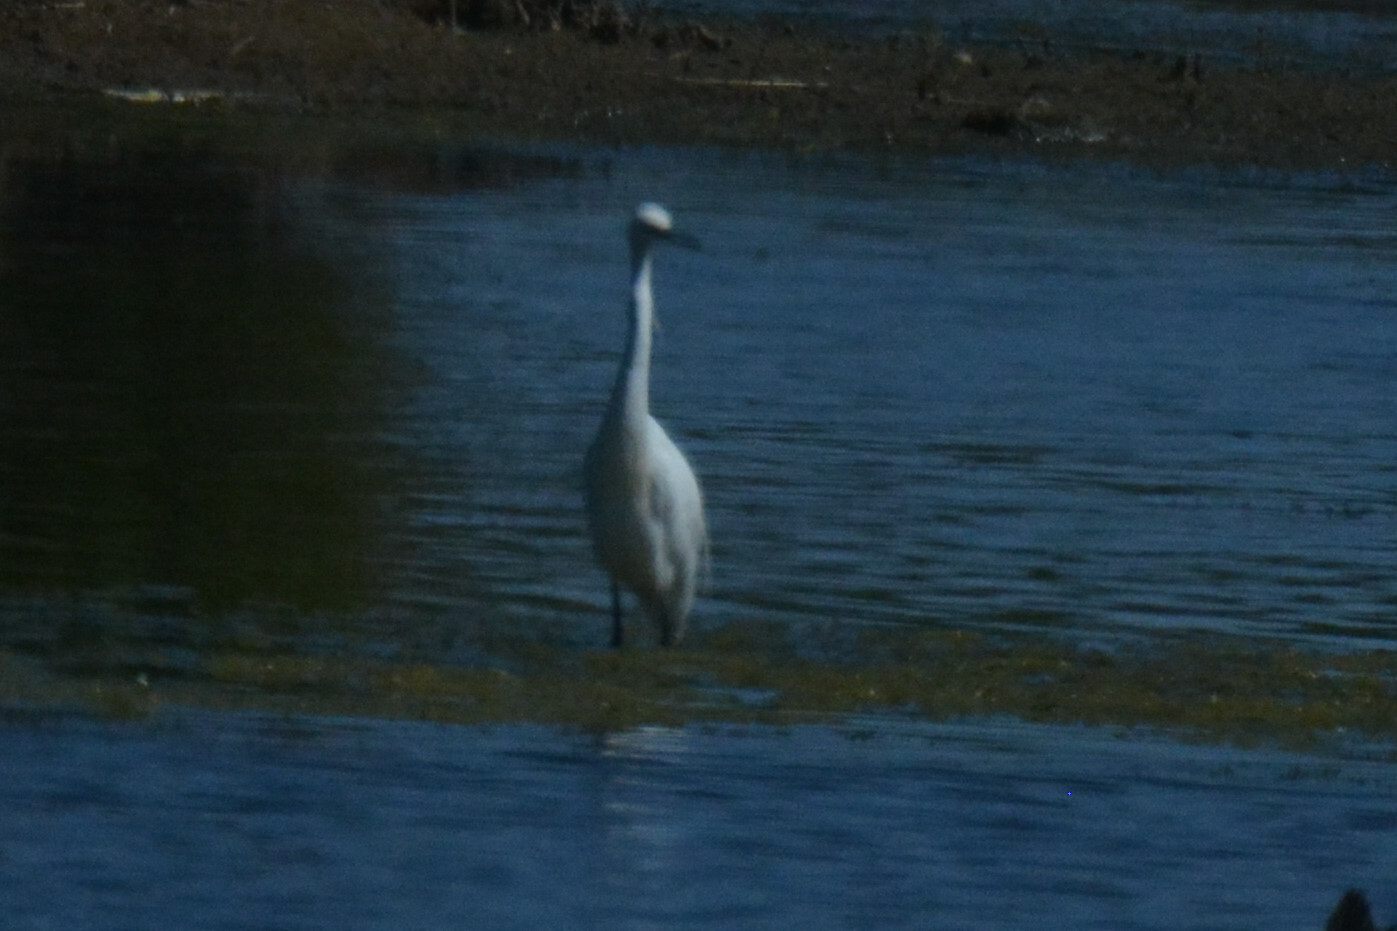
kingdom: Animalia
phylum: Chordata
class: Aves
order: Pelecaniformes
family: Ardeidae
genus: Egretta
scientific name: Egretta garzetta
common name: Little egret
